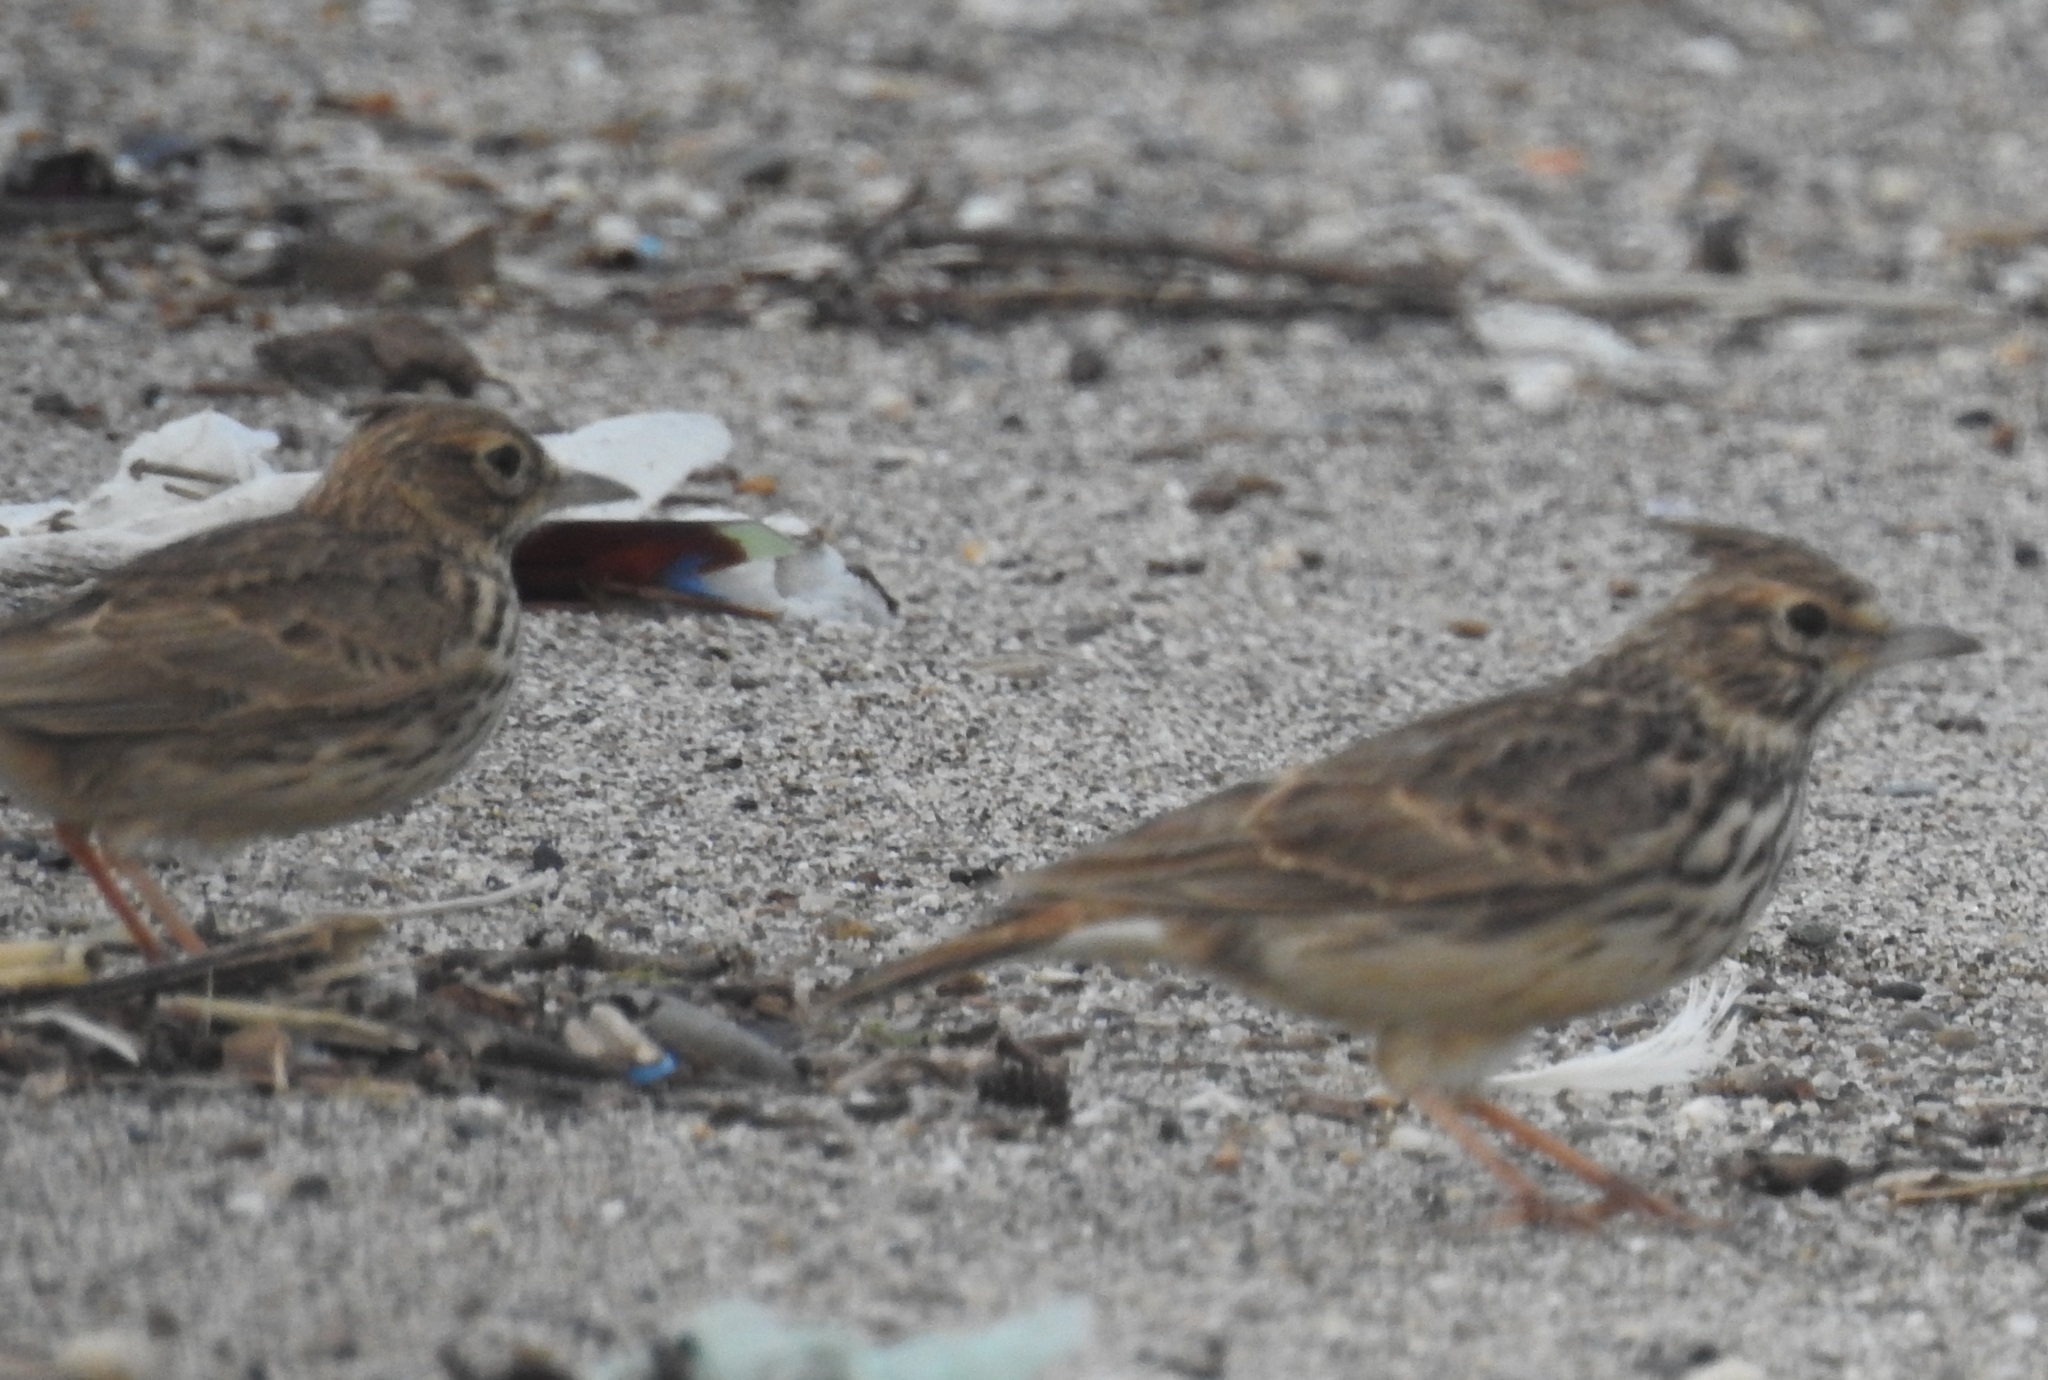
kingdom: Animalia
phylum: Chordata
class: Aves
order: Passeriformes
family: Alaudidae
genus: Galerida
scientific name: Galerida theklae
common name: Thekla lark
